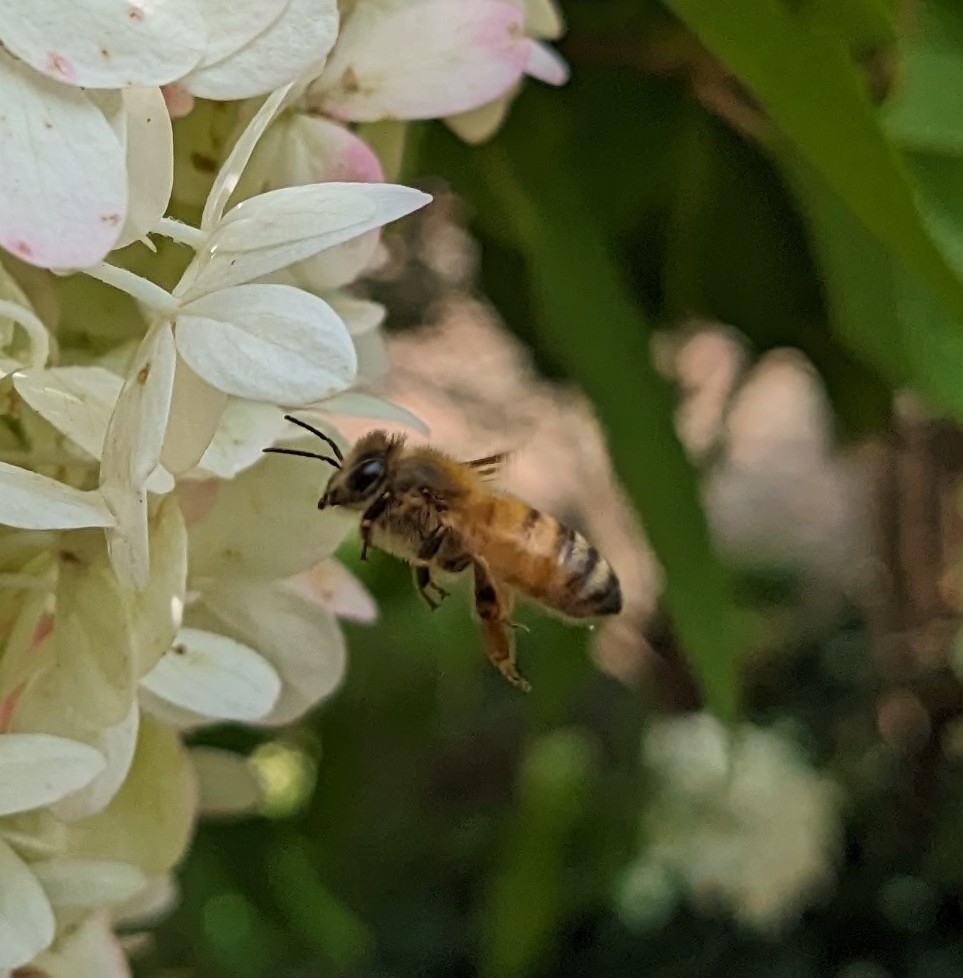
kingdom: Animalia
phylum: Arthropoda
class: Insecta
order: Hymenoptera
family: Apidae
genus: Apis
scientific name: Apis mellifera
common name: Honey bee
